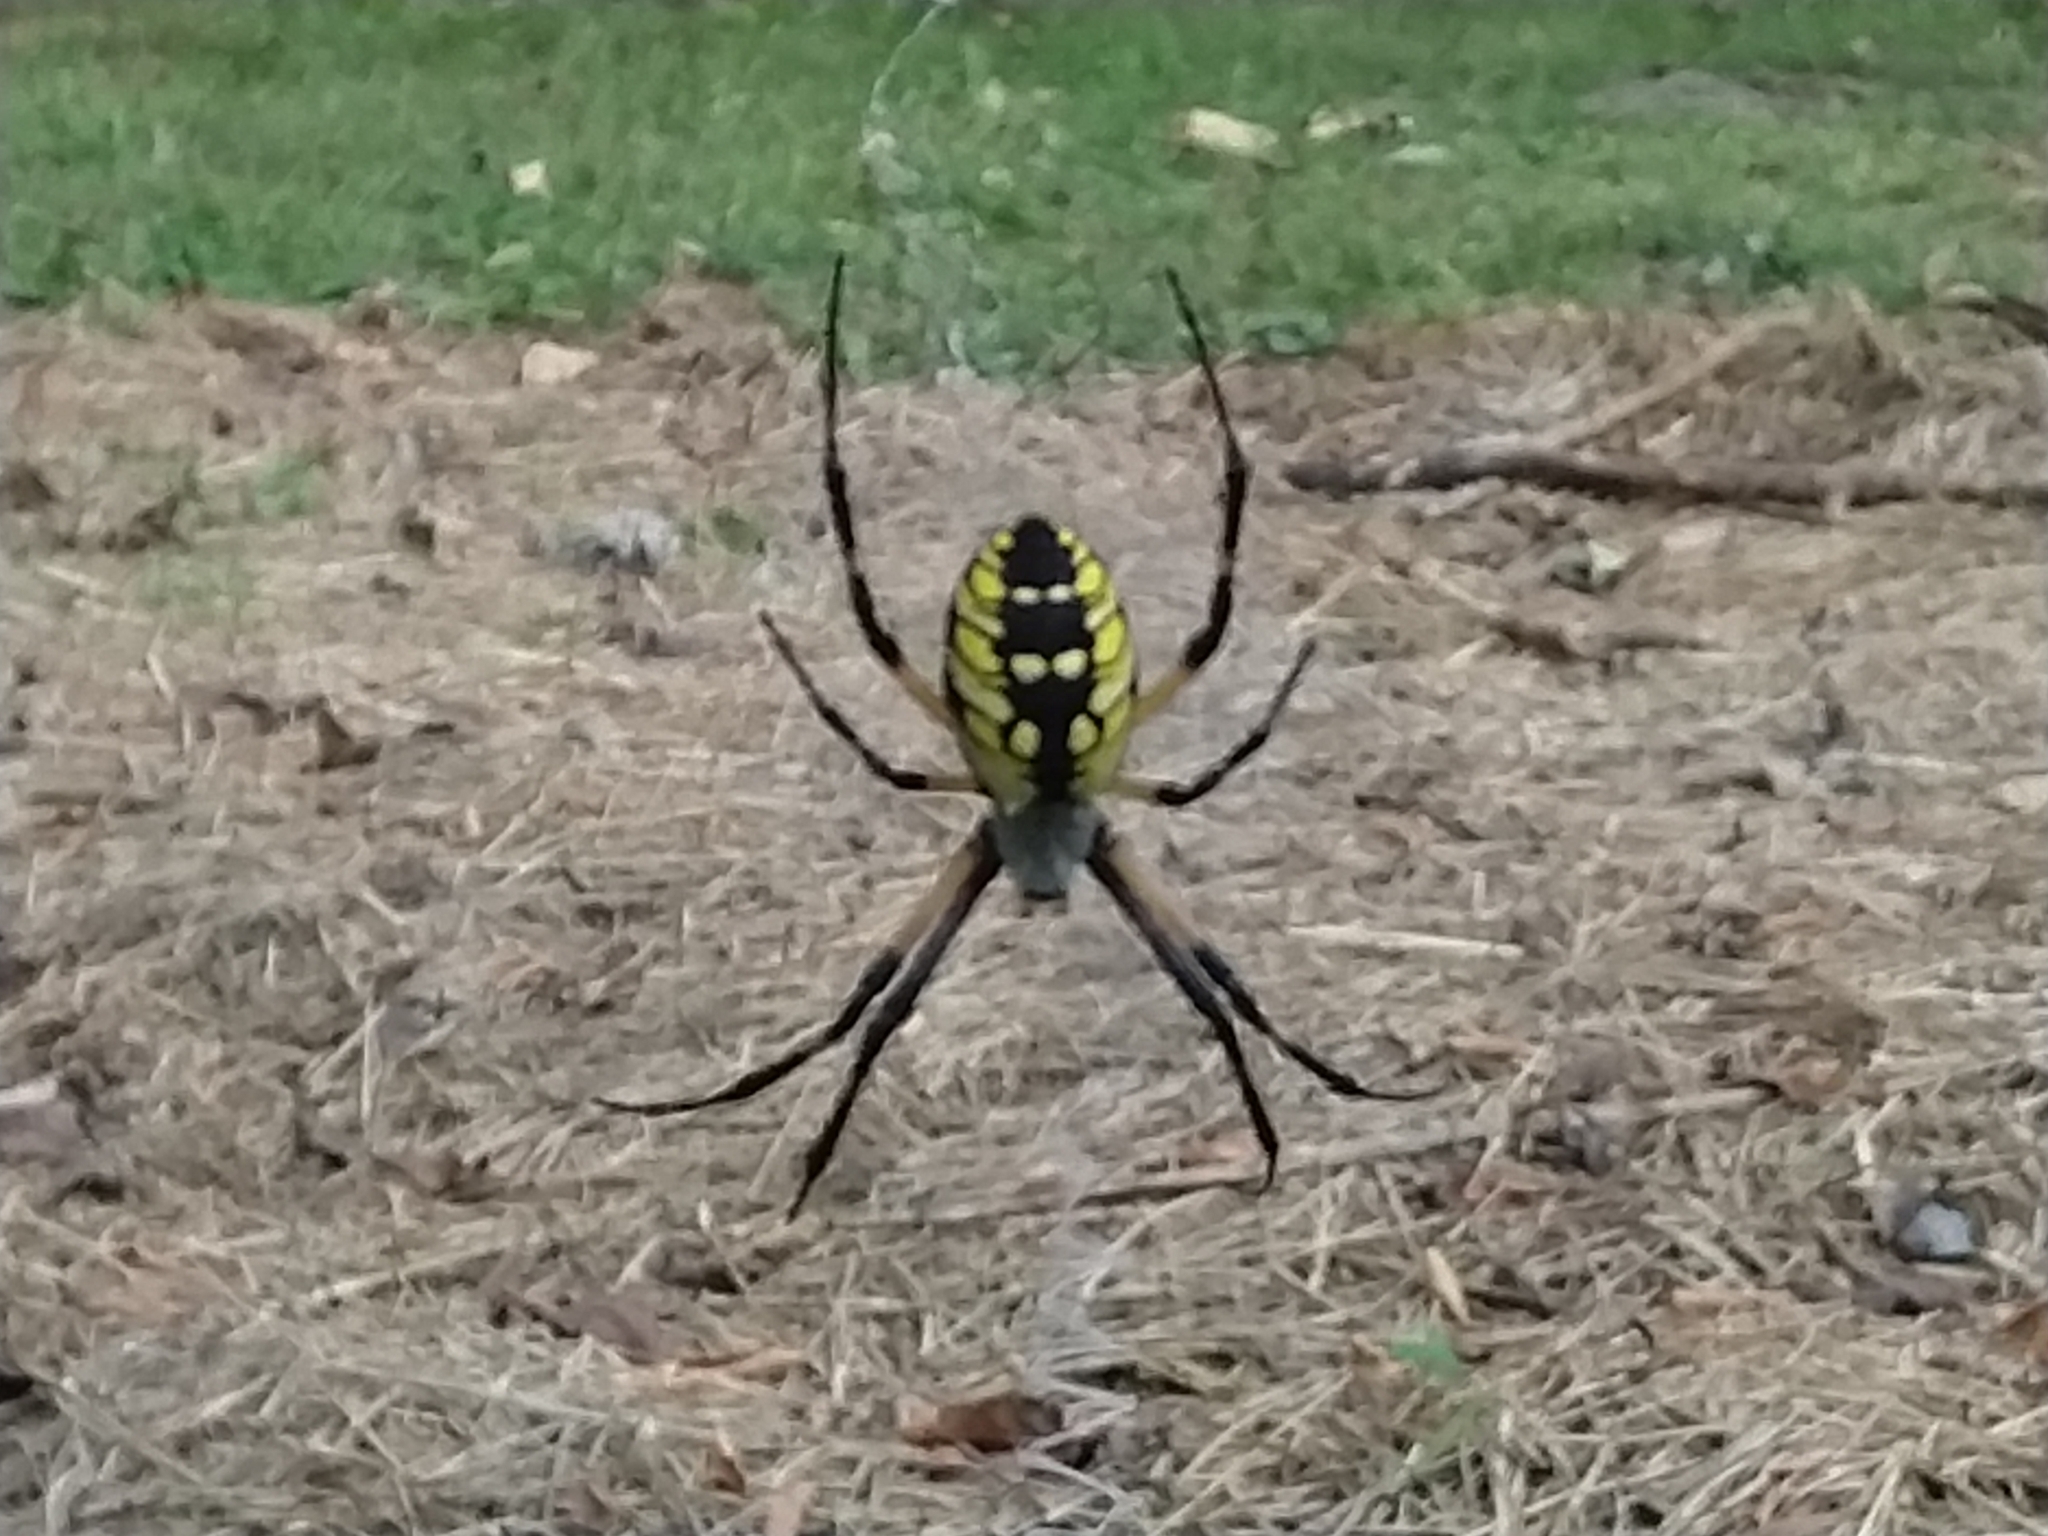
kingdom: Animalia
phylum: Arthropoda
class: Arachnida
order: Araneae
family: Araneidae
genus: Argiope
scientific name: Argiope aurantia
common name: Orb weavers
